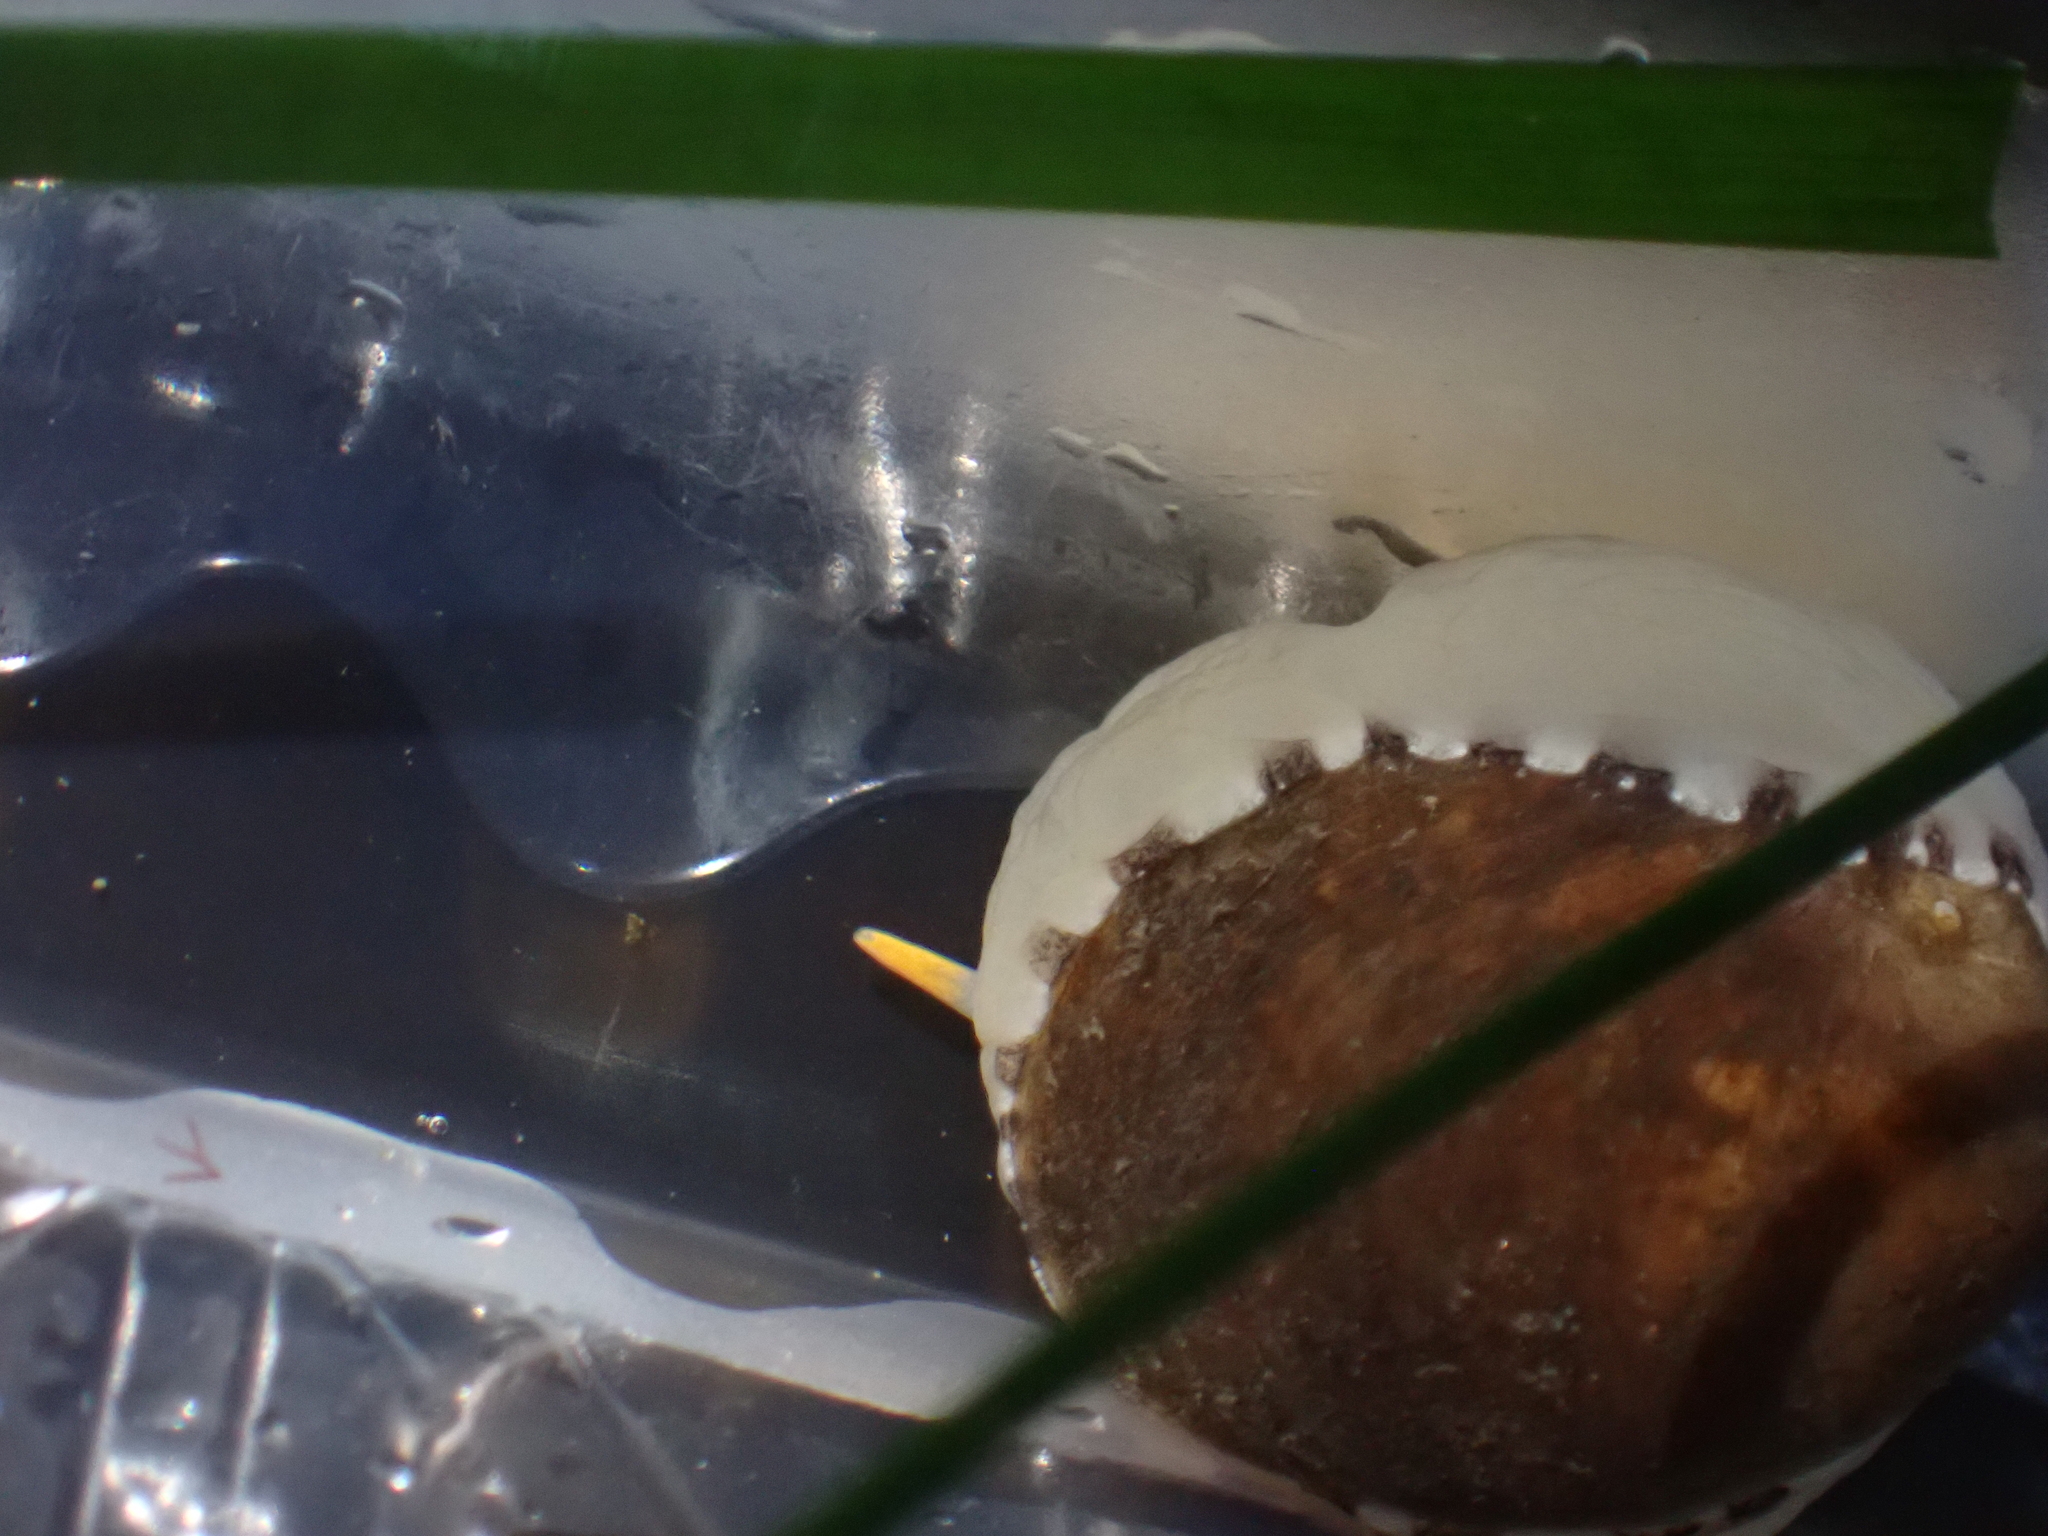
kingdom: Animalia
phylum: Mollusca
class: Gastropoda
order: Littorinimorpha
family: Velutinidae
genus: Limneria
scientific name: Limneria prolongata
